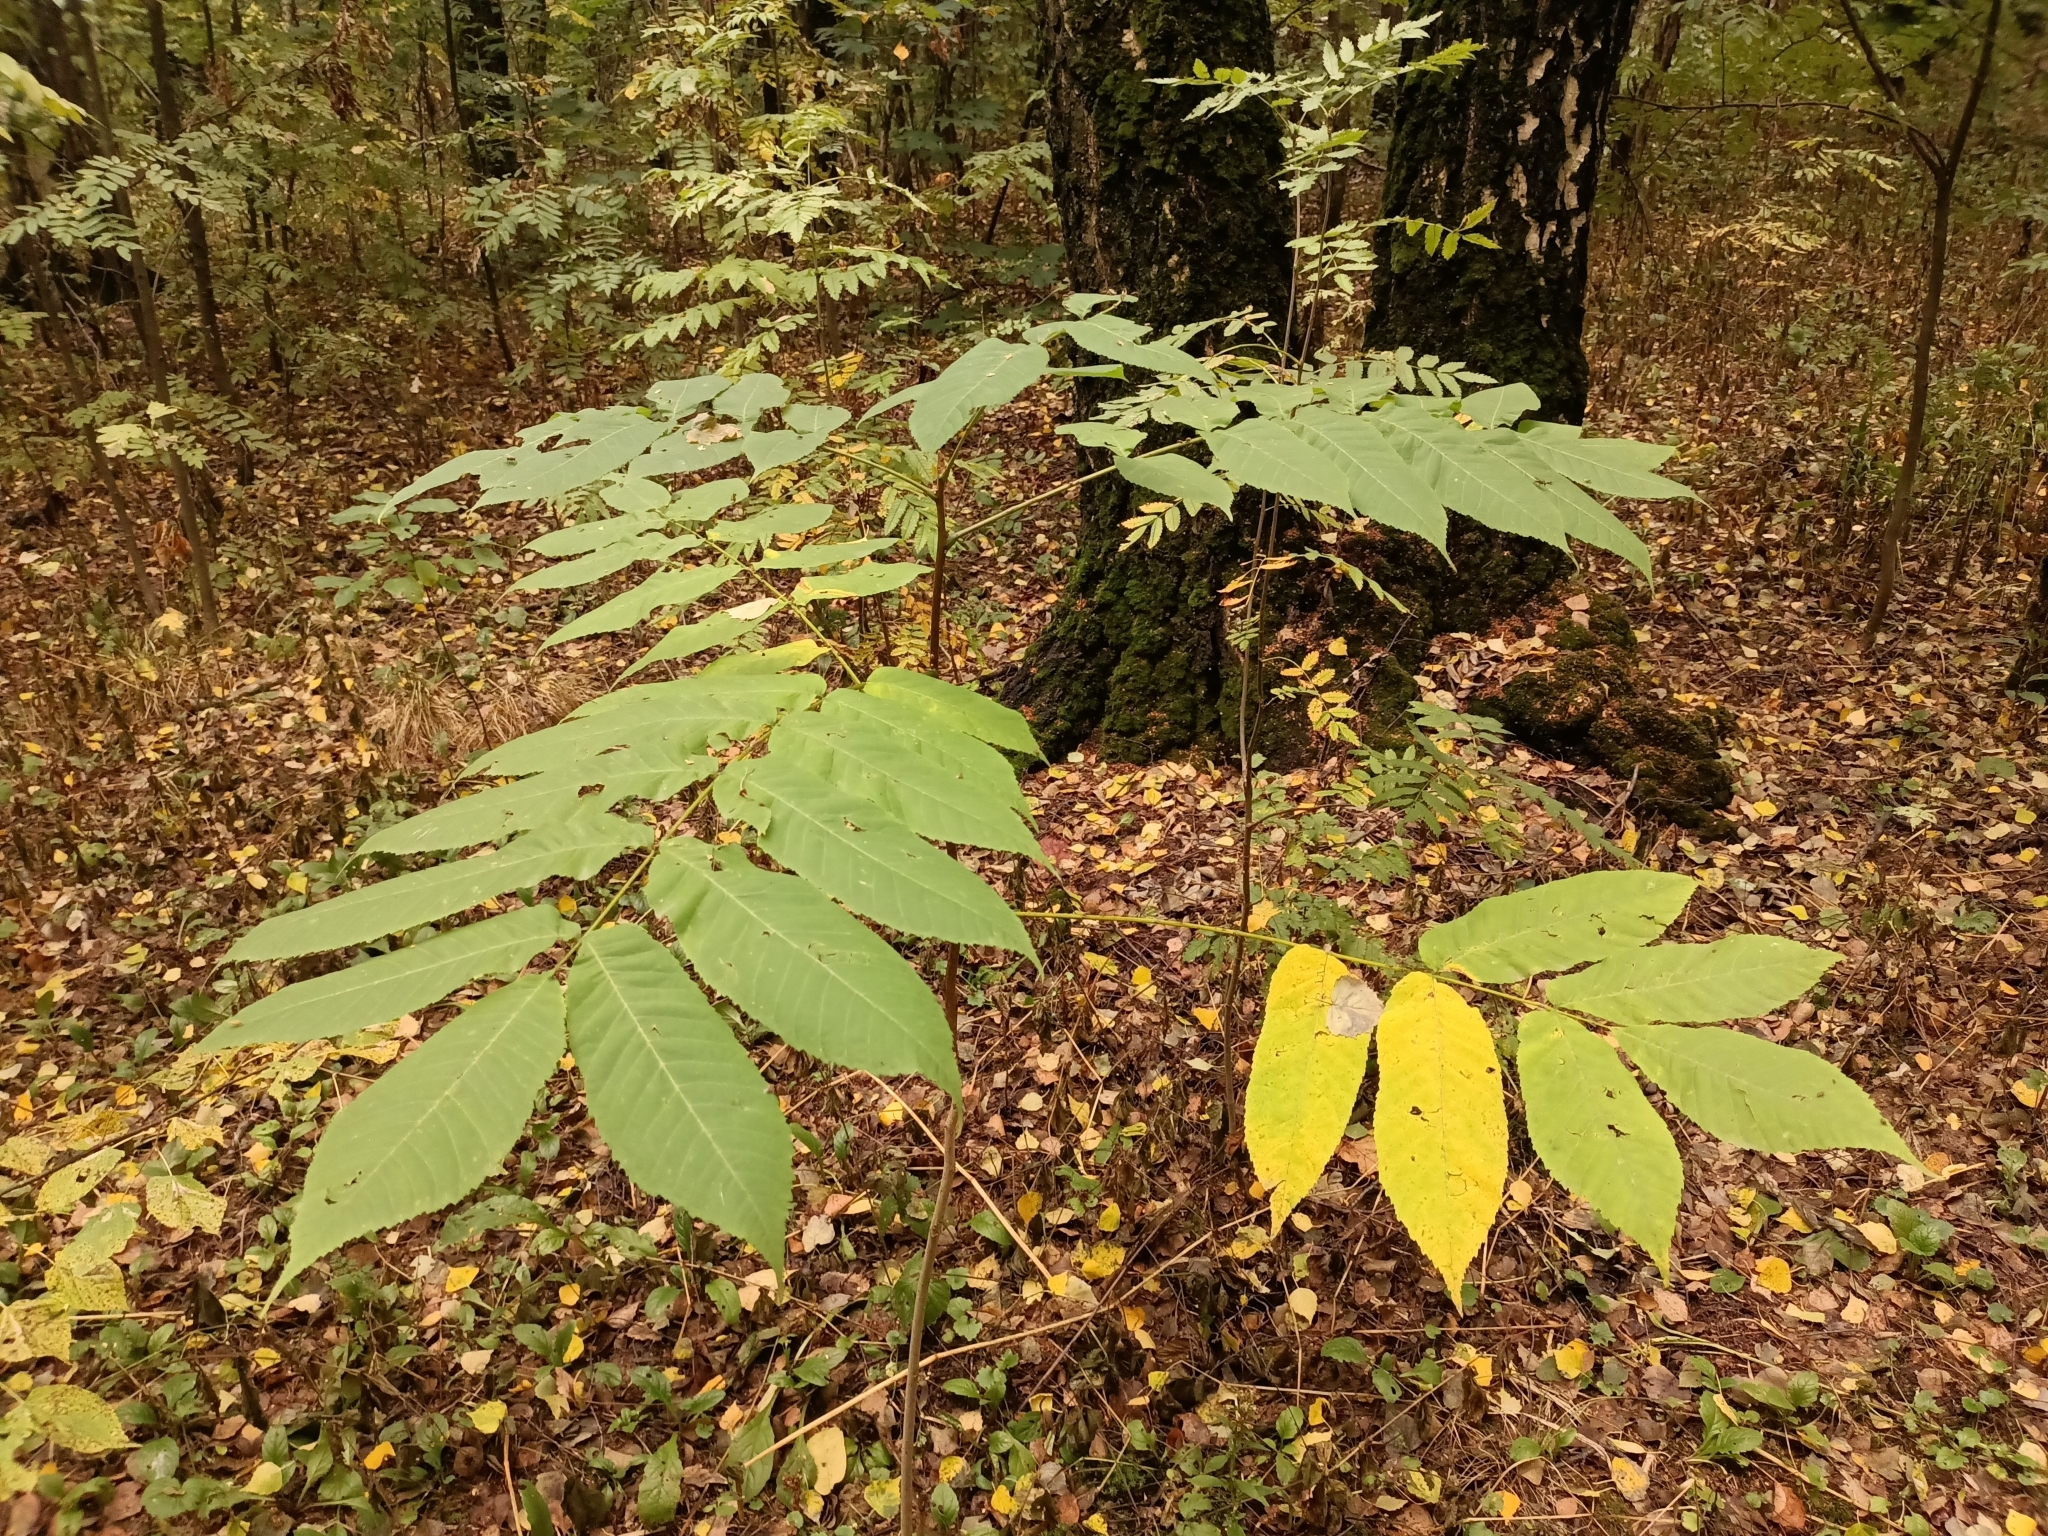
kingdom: Plantae
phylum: Tracheophyta
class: Magnoliopsida
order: Fagales
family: Juglandaceae
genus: Juglans
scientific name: Juglans mandshurica
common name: Manchurian walnut
